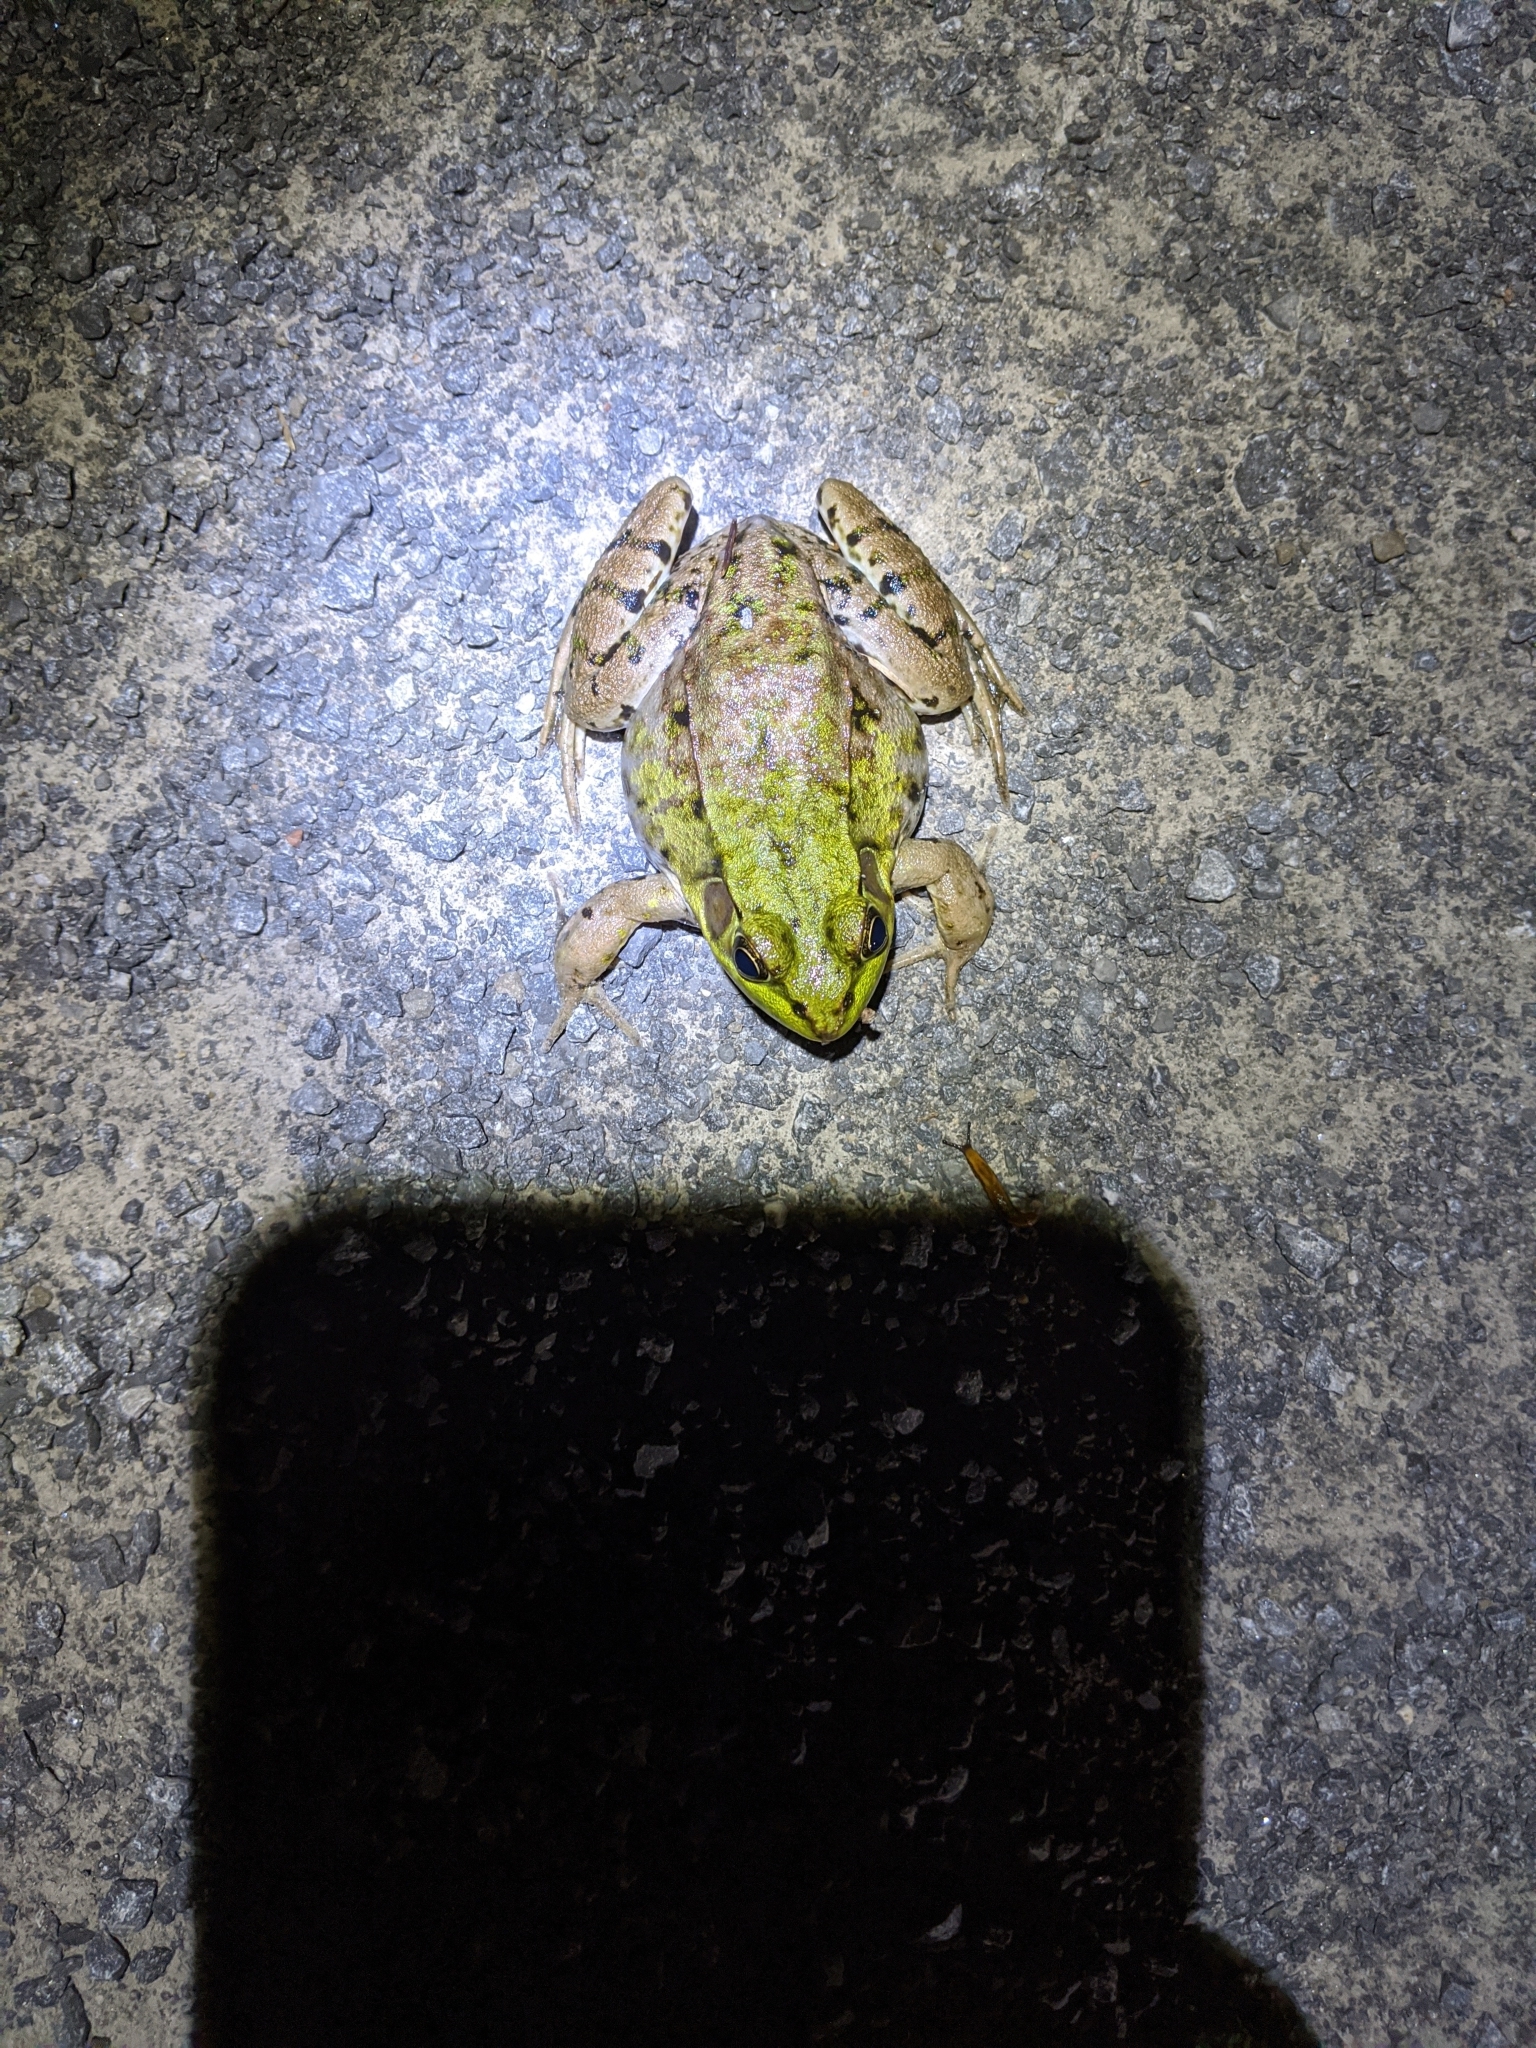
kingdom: Animalia
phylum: Chordata
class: Amphibia
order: Anura
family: Ranidae
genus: Lithobates
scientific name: Lithobates clamitans
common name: Green frog
